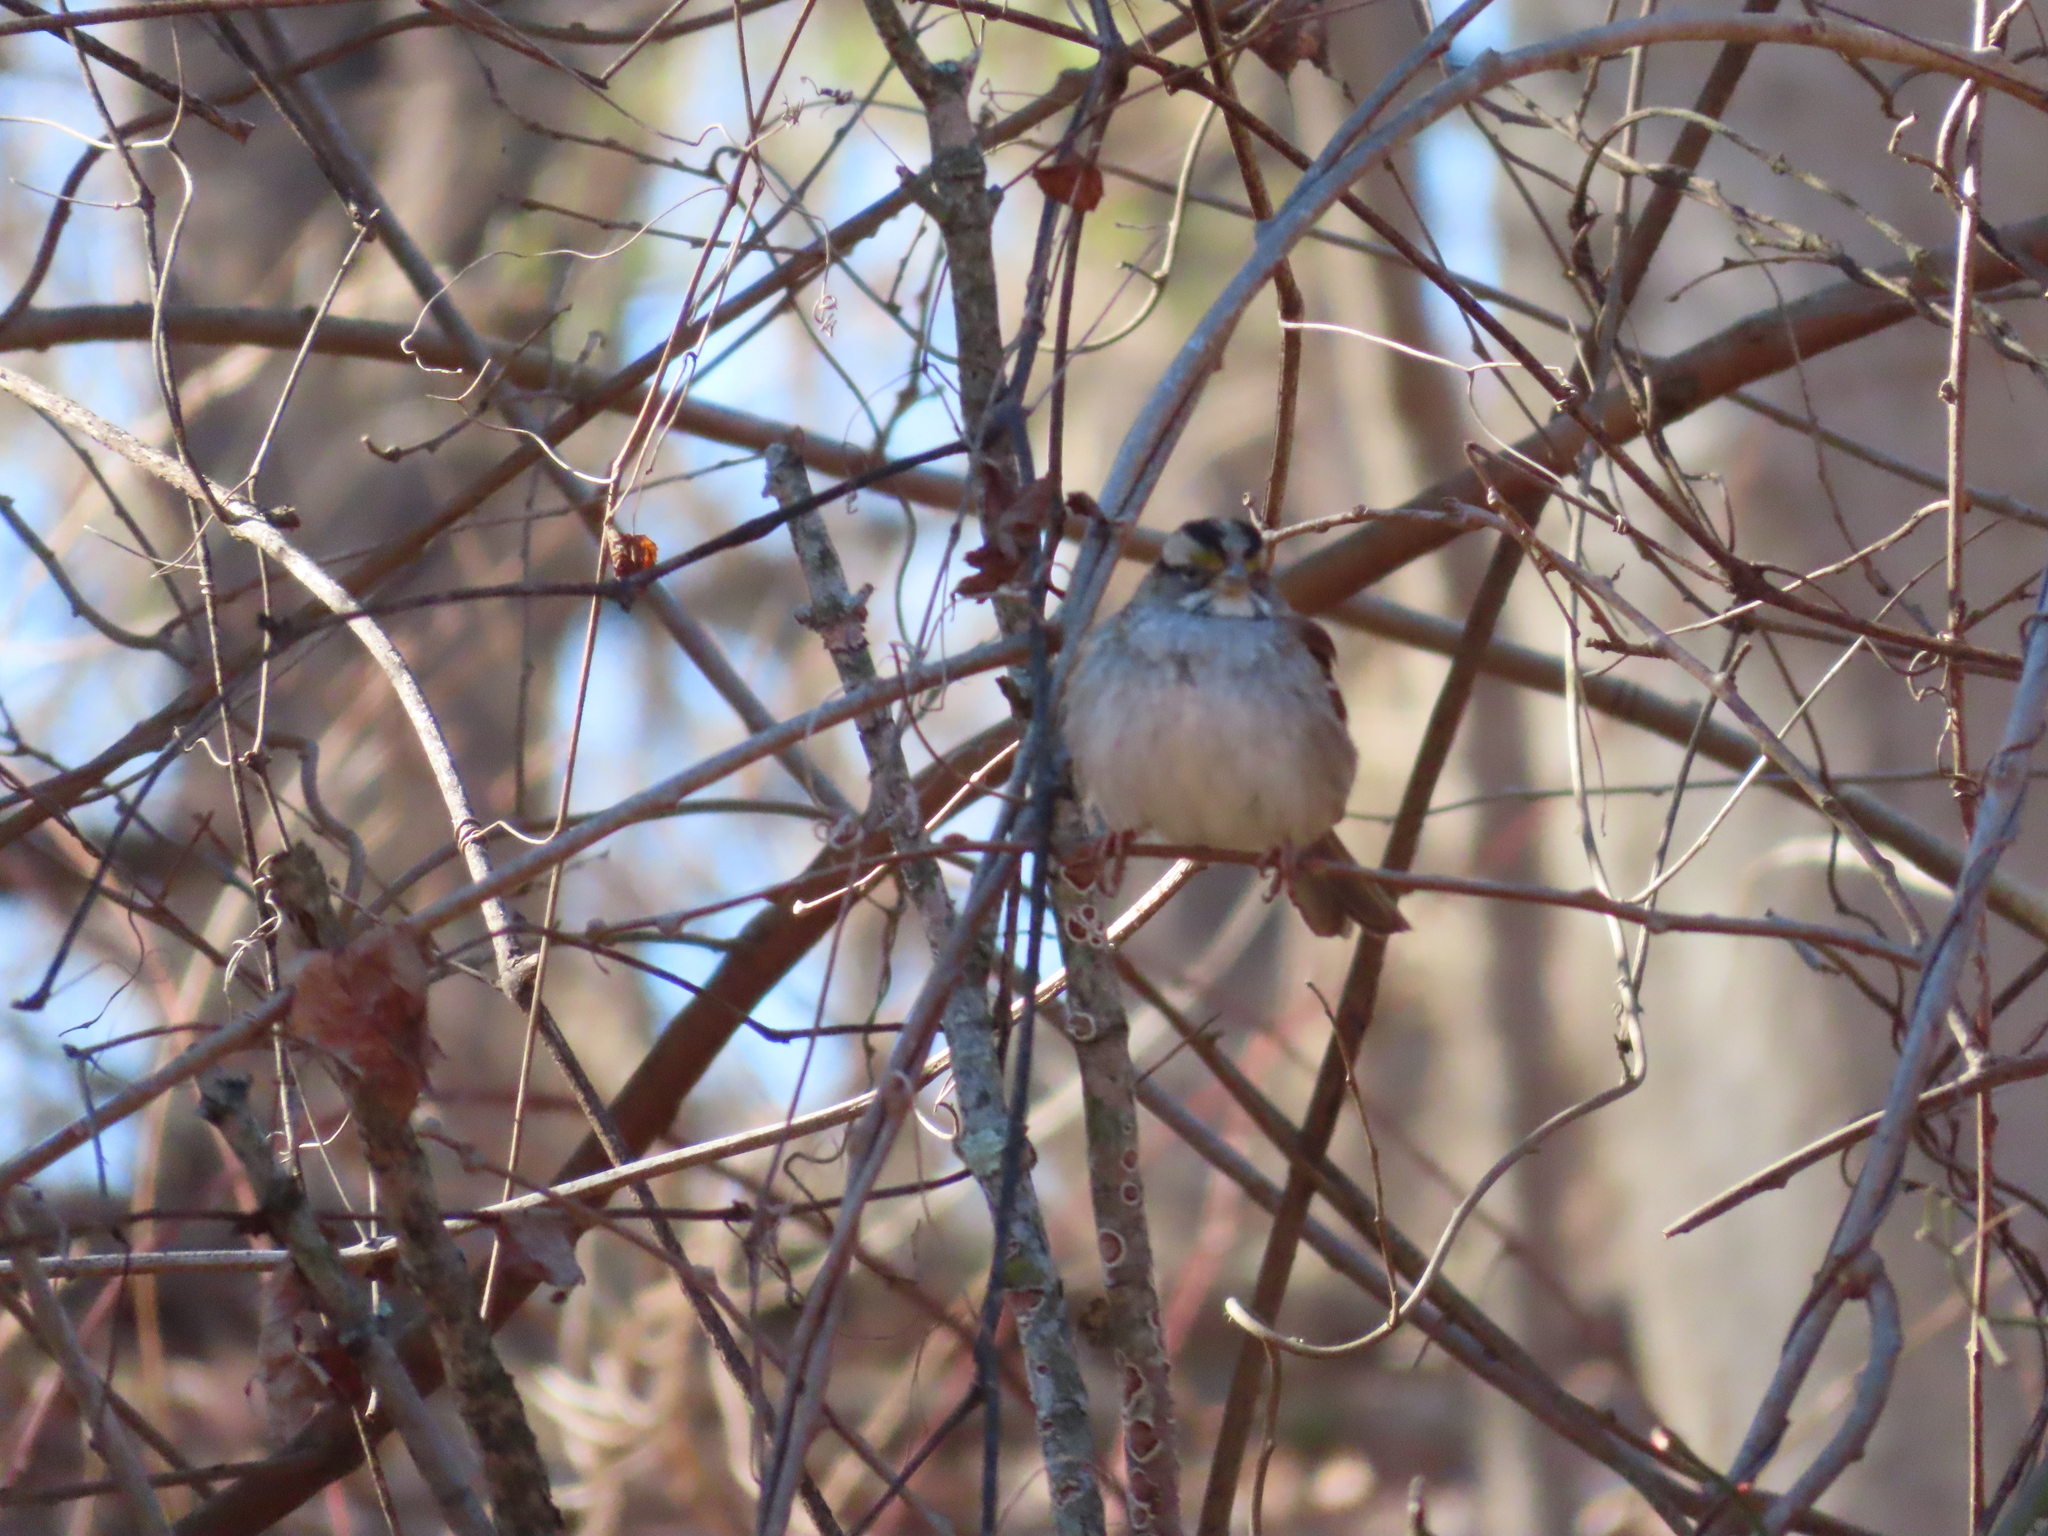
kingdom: Animalia
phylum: Chordata
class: Aves
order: Passeriformes
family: Passerellidae
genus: Zonotrichia
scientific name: Zonotrichia albicollis
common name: White-throated sparrow
